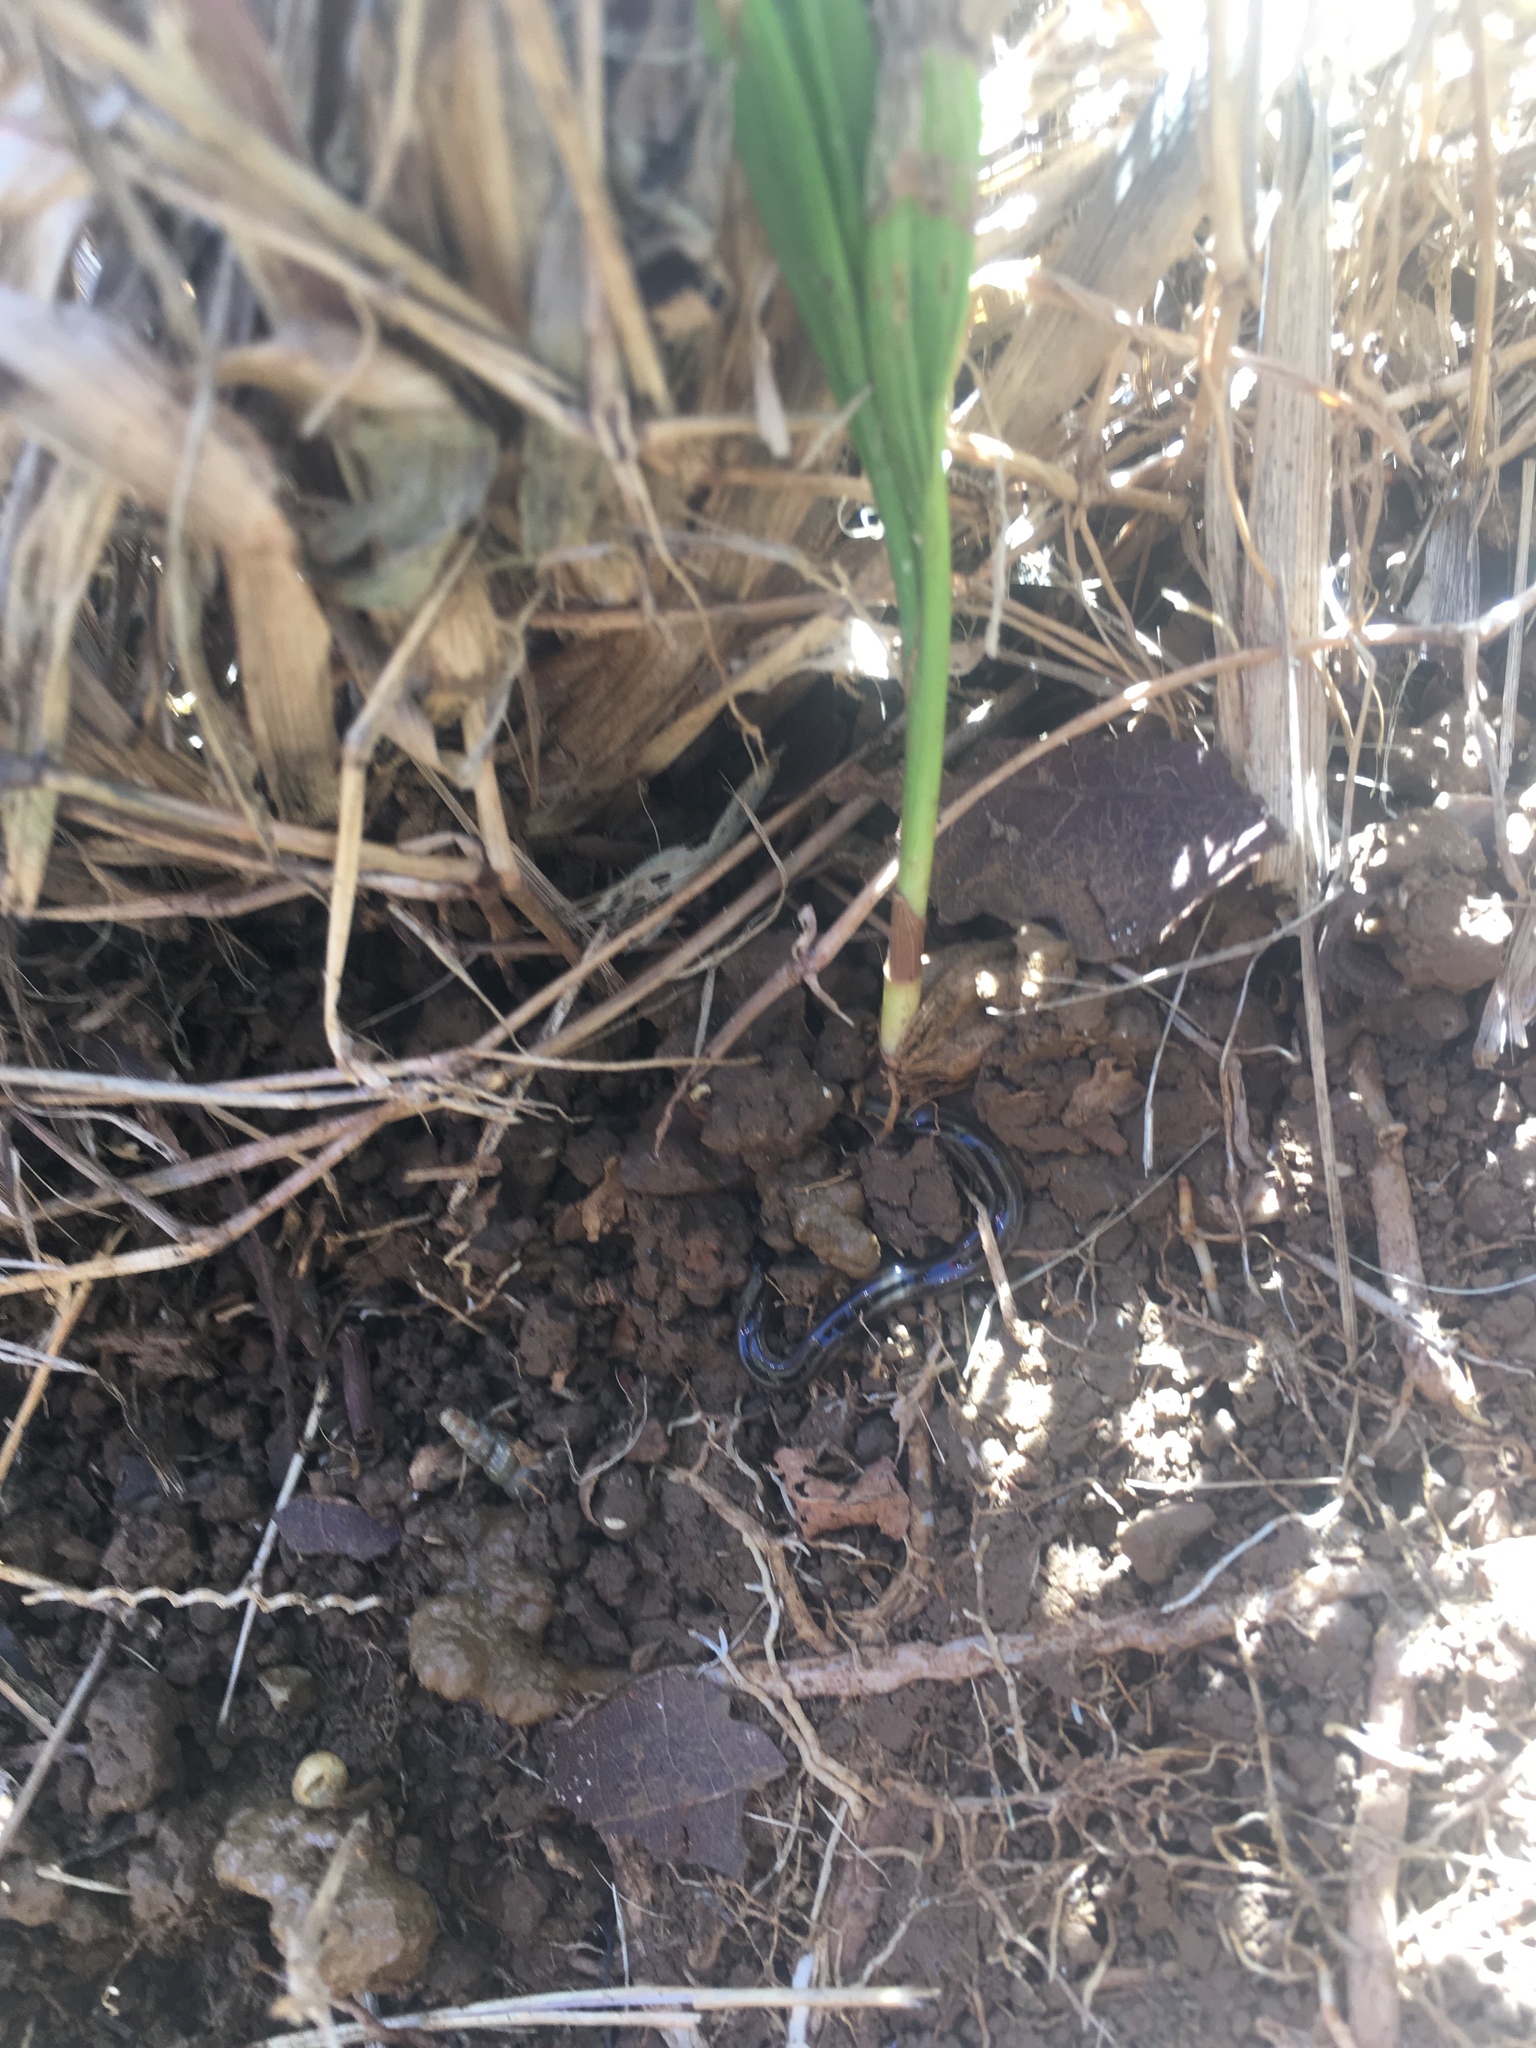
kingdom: Animalia
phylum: Platyhelminthes
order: Tricladida
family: Geoplanidae
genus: Bipalium
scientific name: Bipalium vagum
